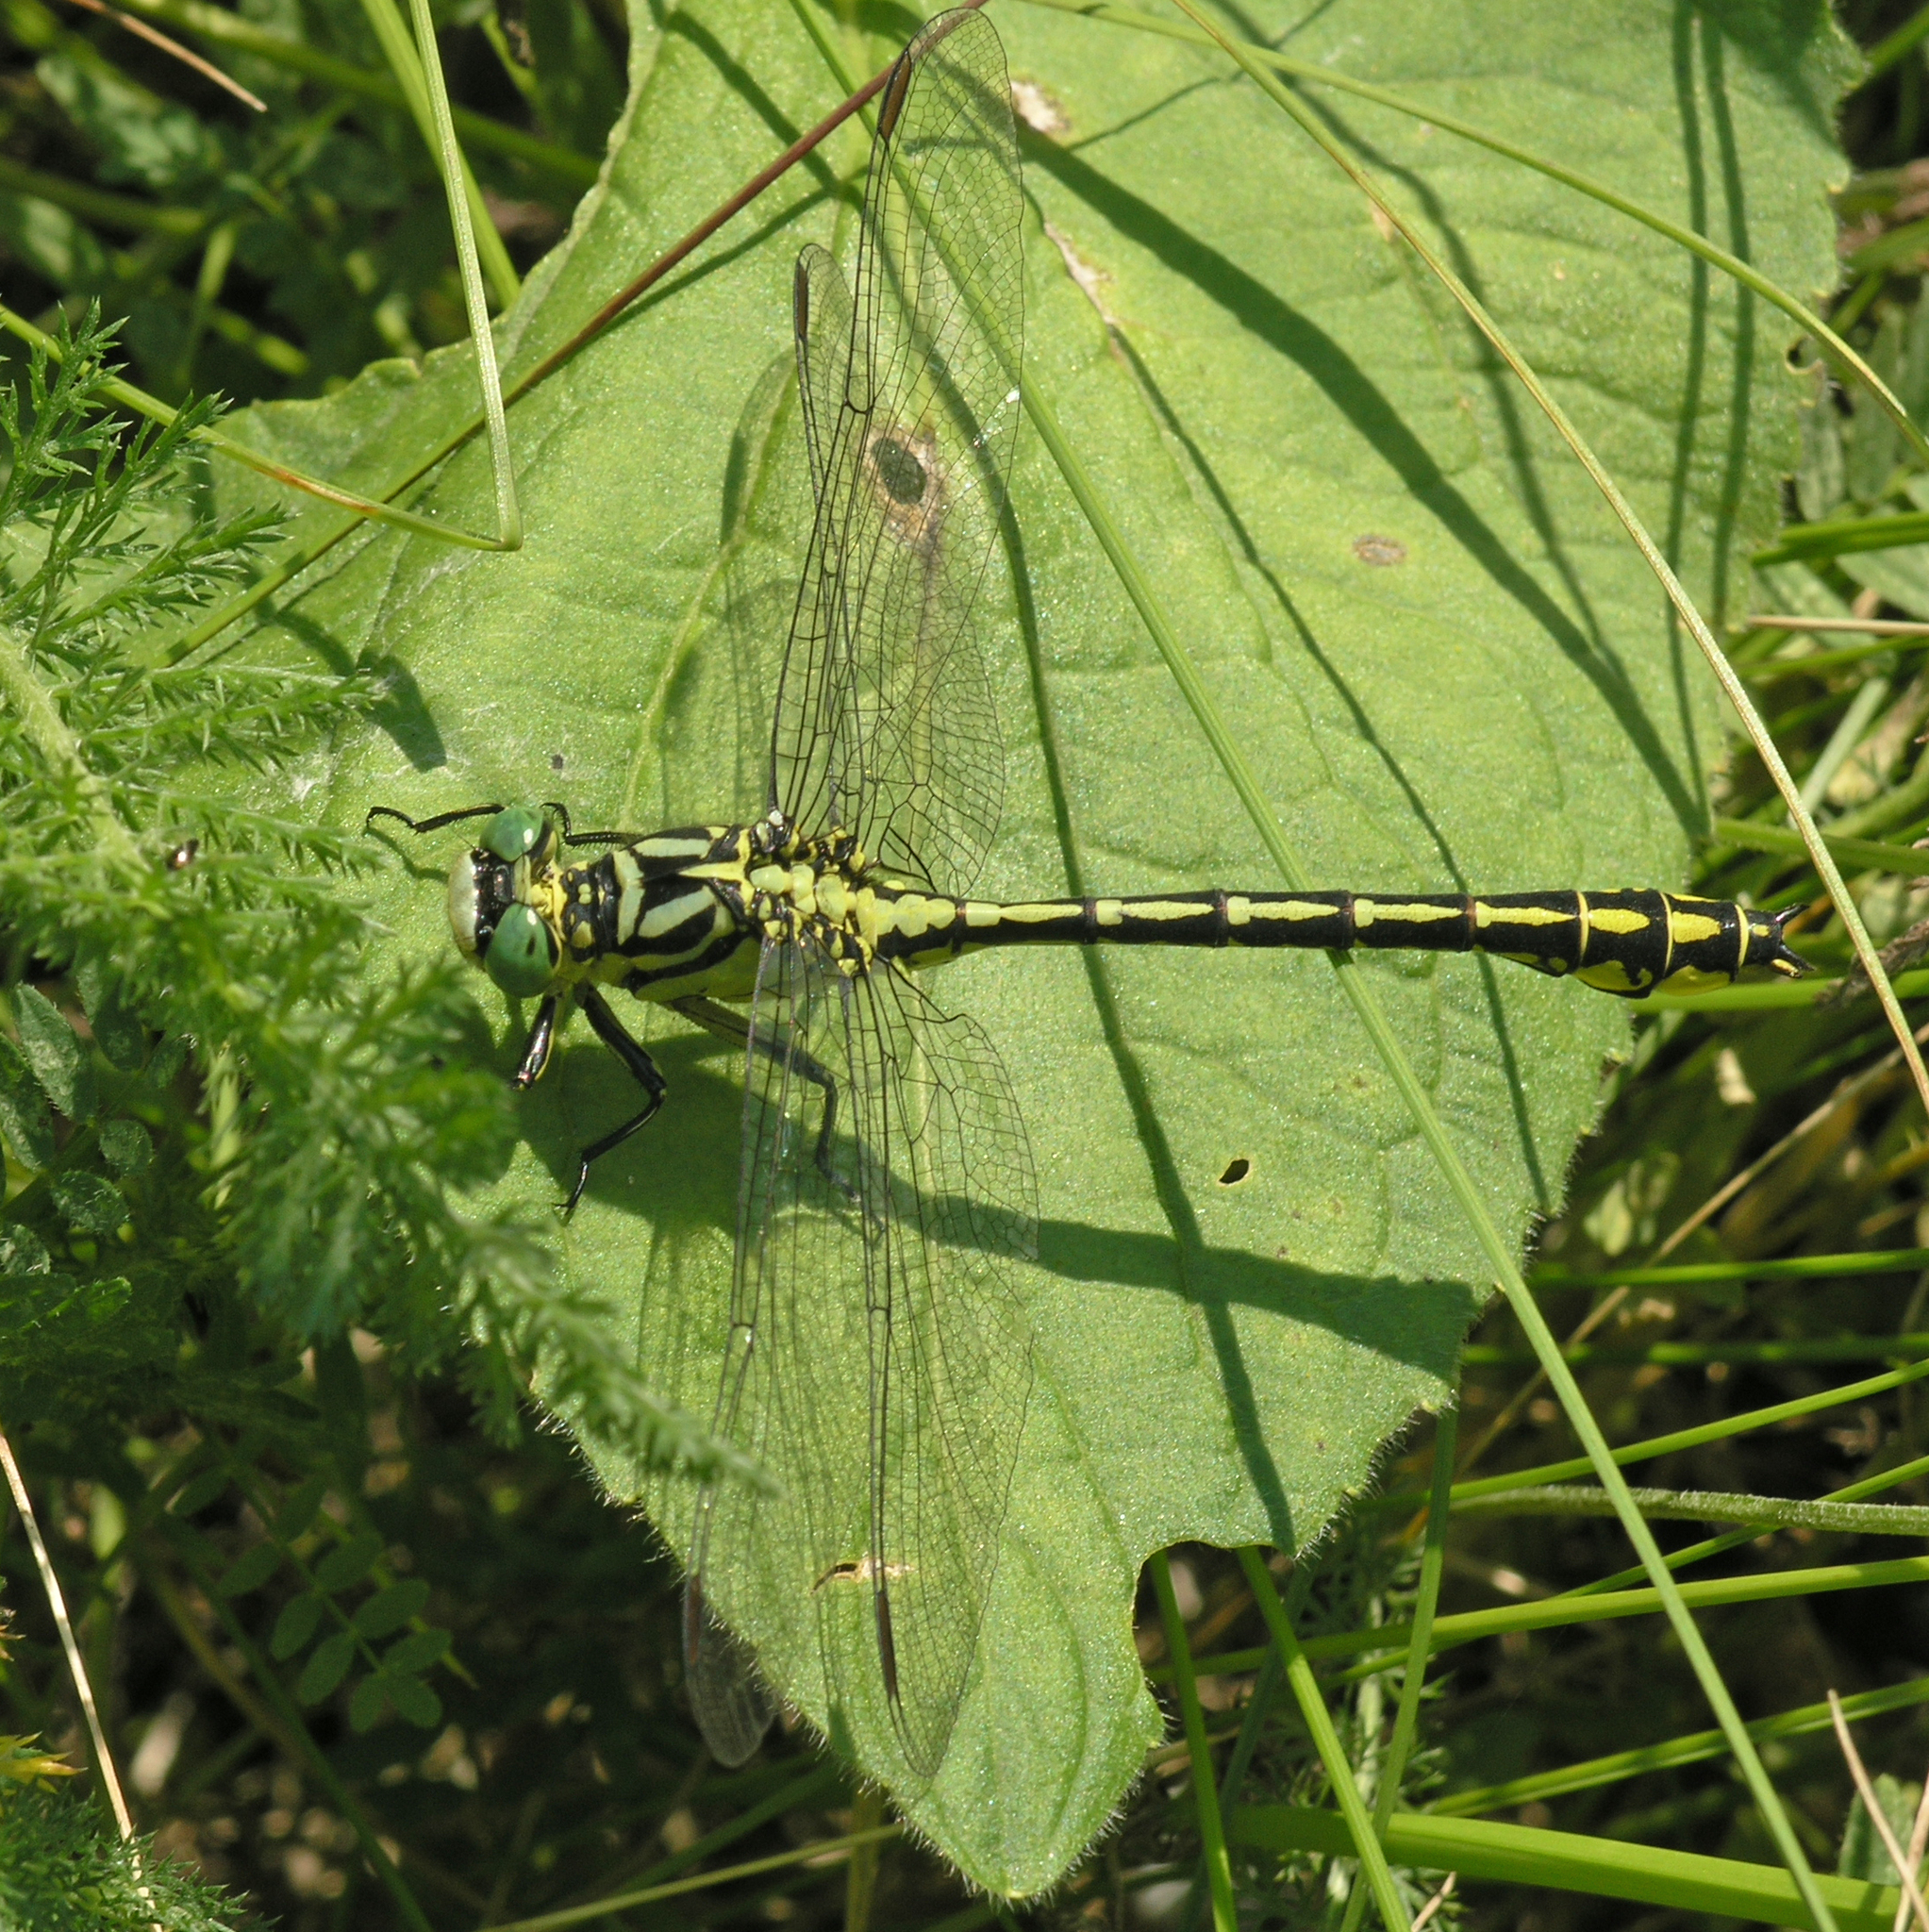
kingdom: Animalia
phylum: Arthropoda
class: Insecta
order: Odonata
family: Gomphidae
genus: Stylurus
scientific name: Stylurus flavipes
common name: River clubtail
